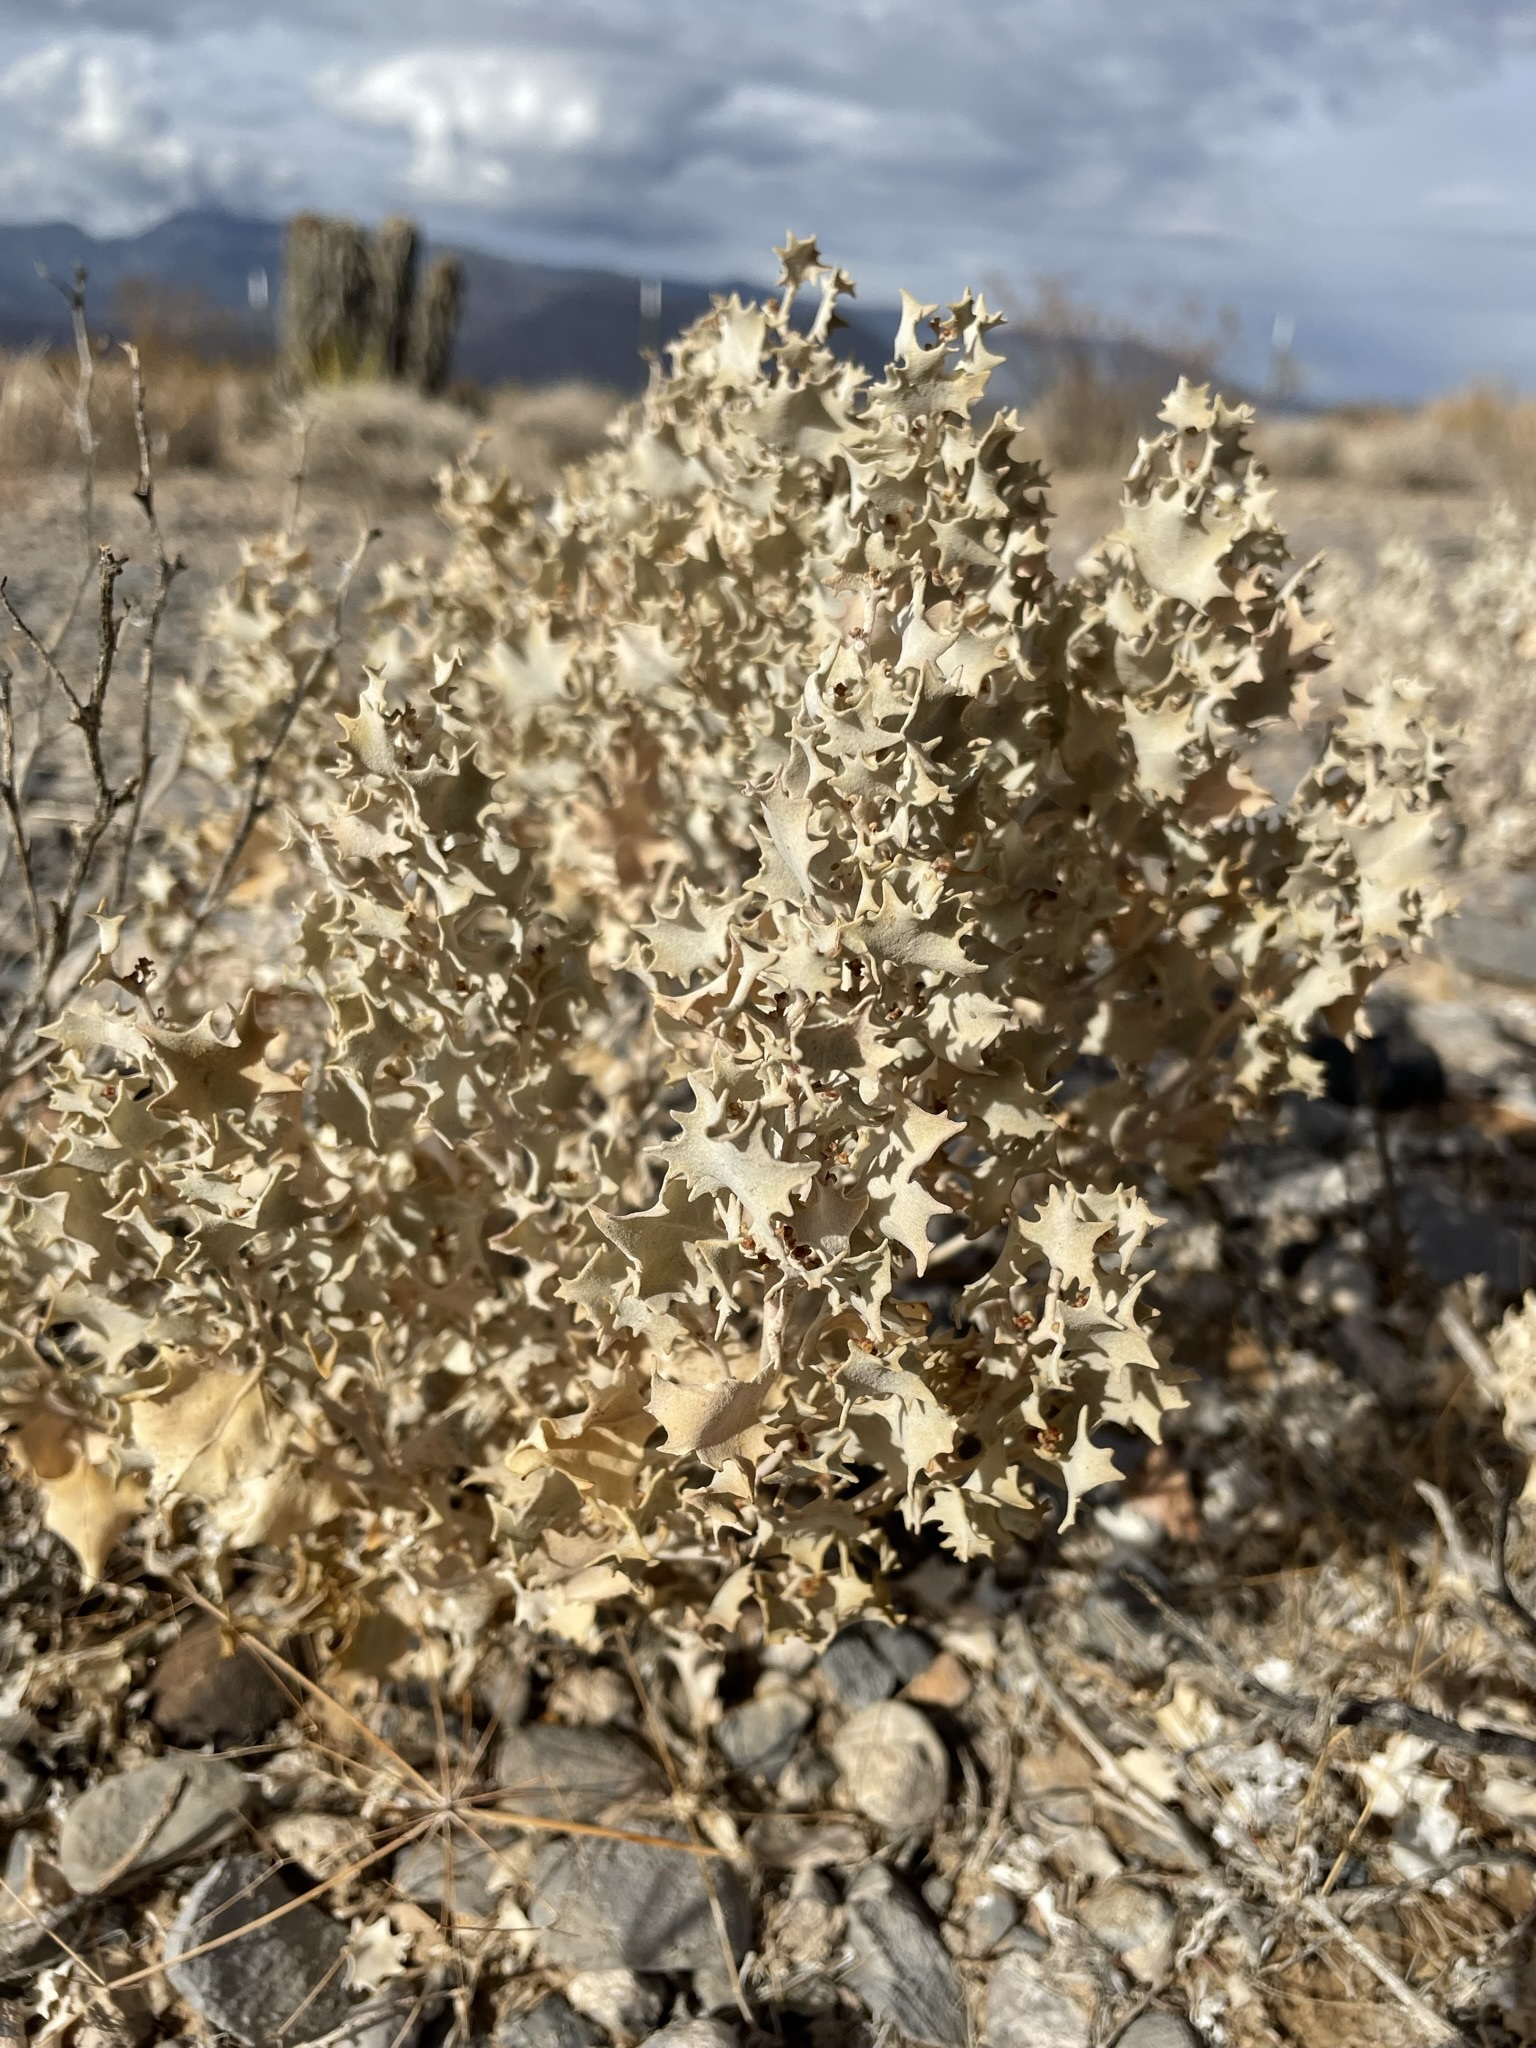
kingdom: Plantae
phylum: Tracheophyta
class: Magnoliopsida
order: Caryophyllales
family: Amaranthaceae
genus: Atriplex
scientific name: Atriplex hymenelytra
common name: Desert-holly
